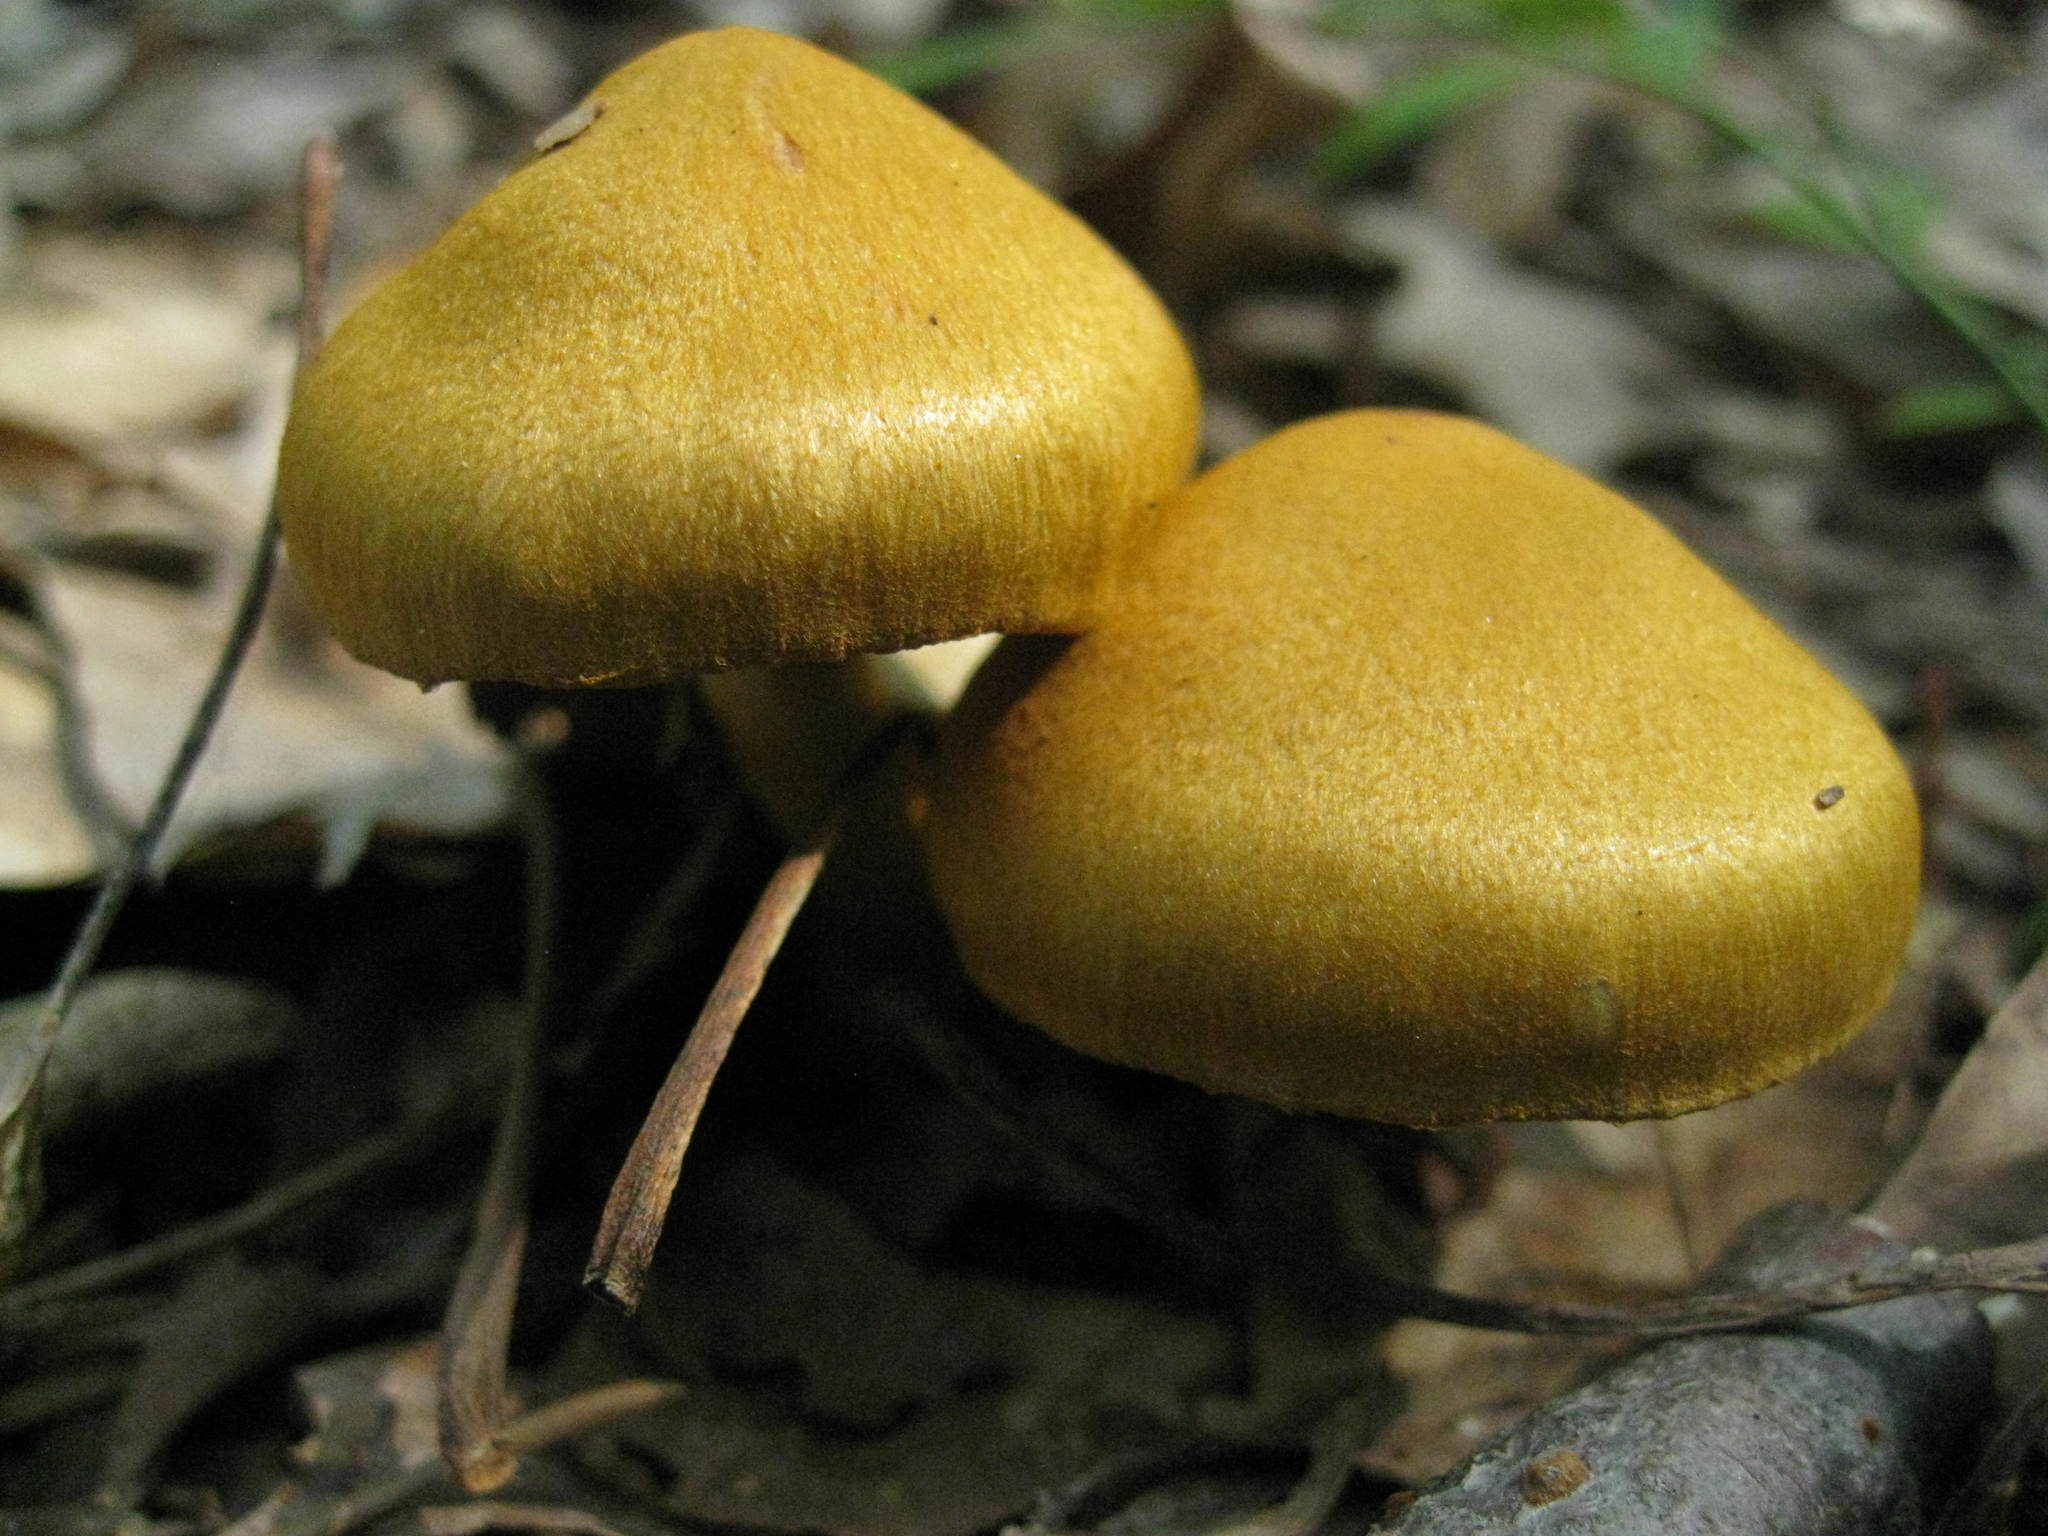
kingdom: Fungi
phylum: Basidiomycota
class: Agaricomycetes
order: Agaricales
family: Cortinariaceae
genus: Cortinarius
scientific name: Cortinarius semisanguineus
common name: Surprise webcap
